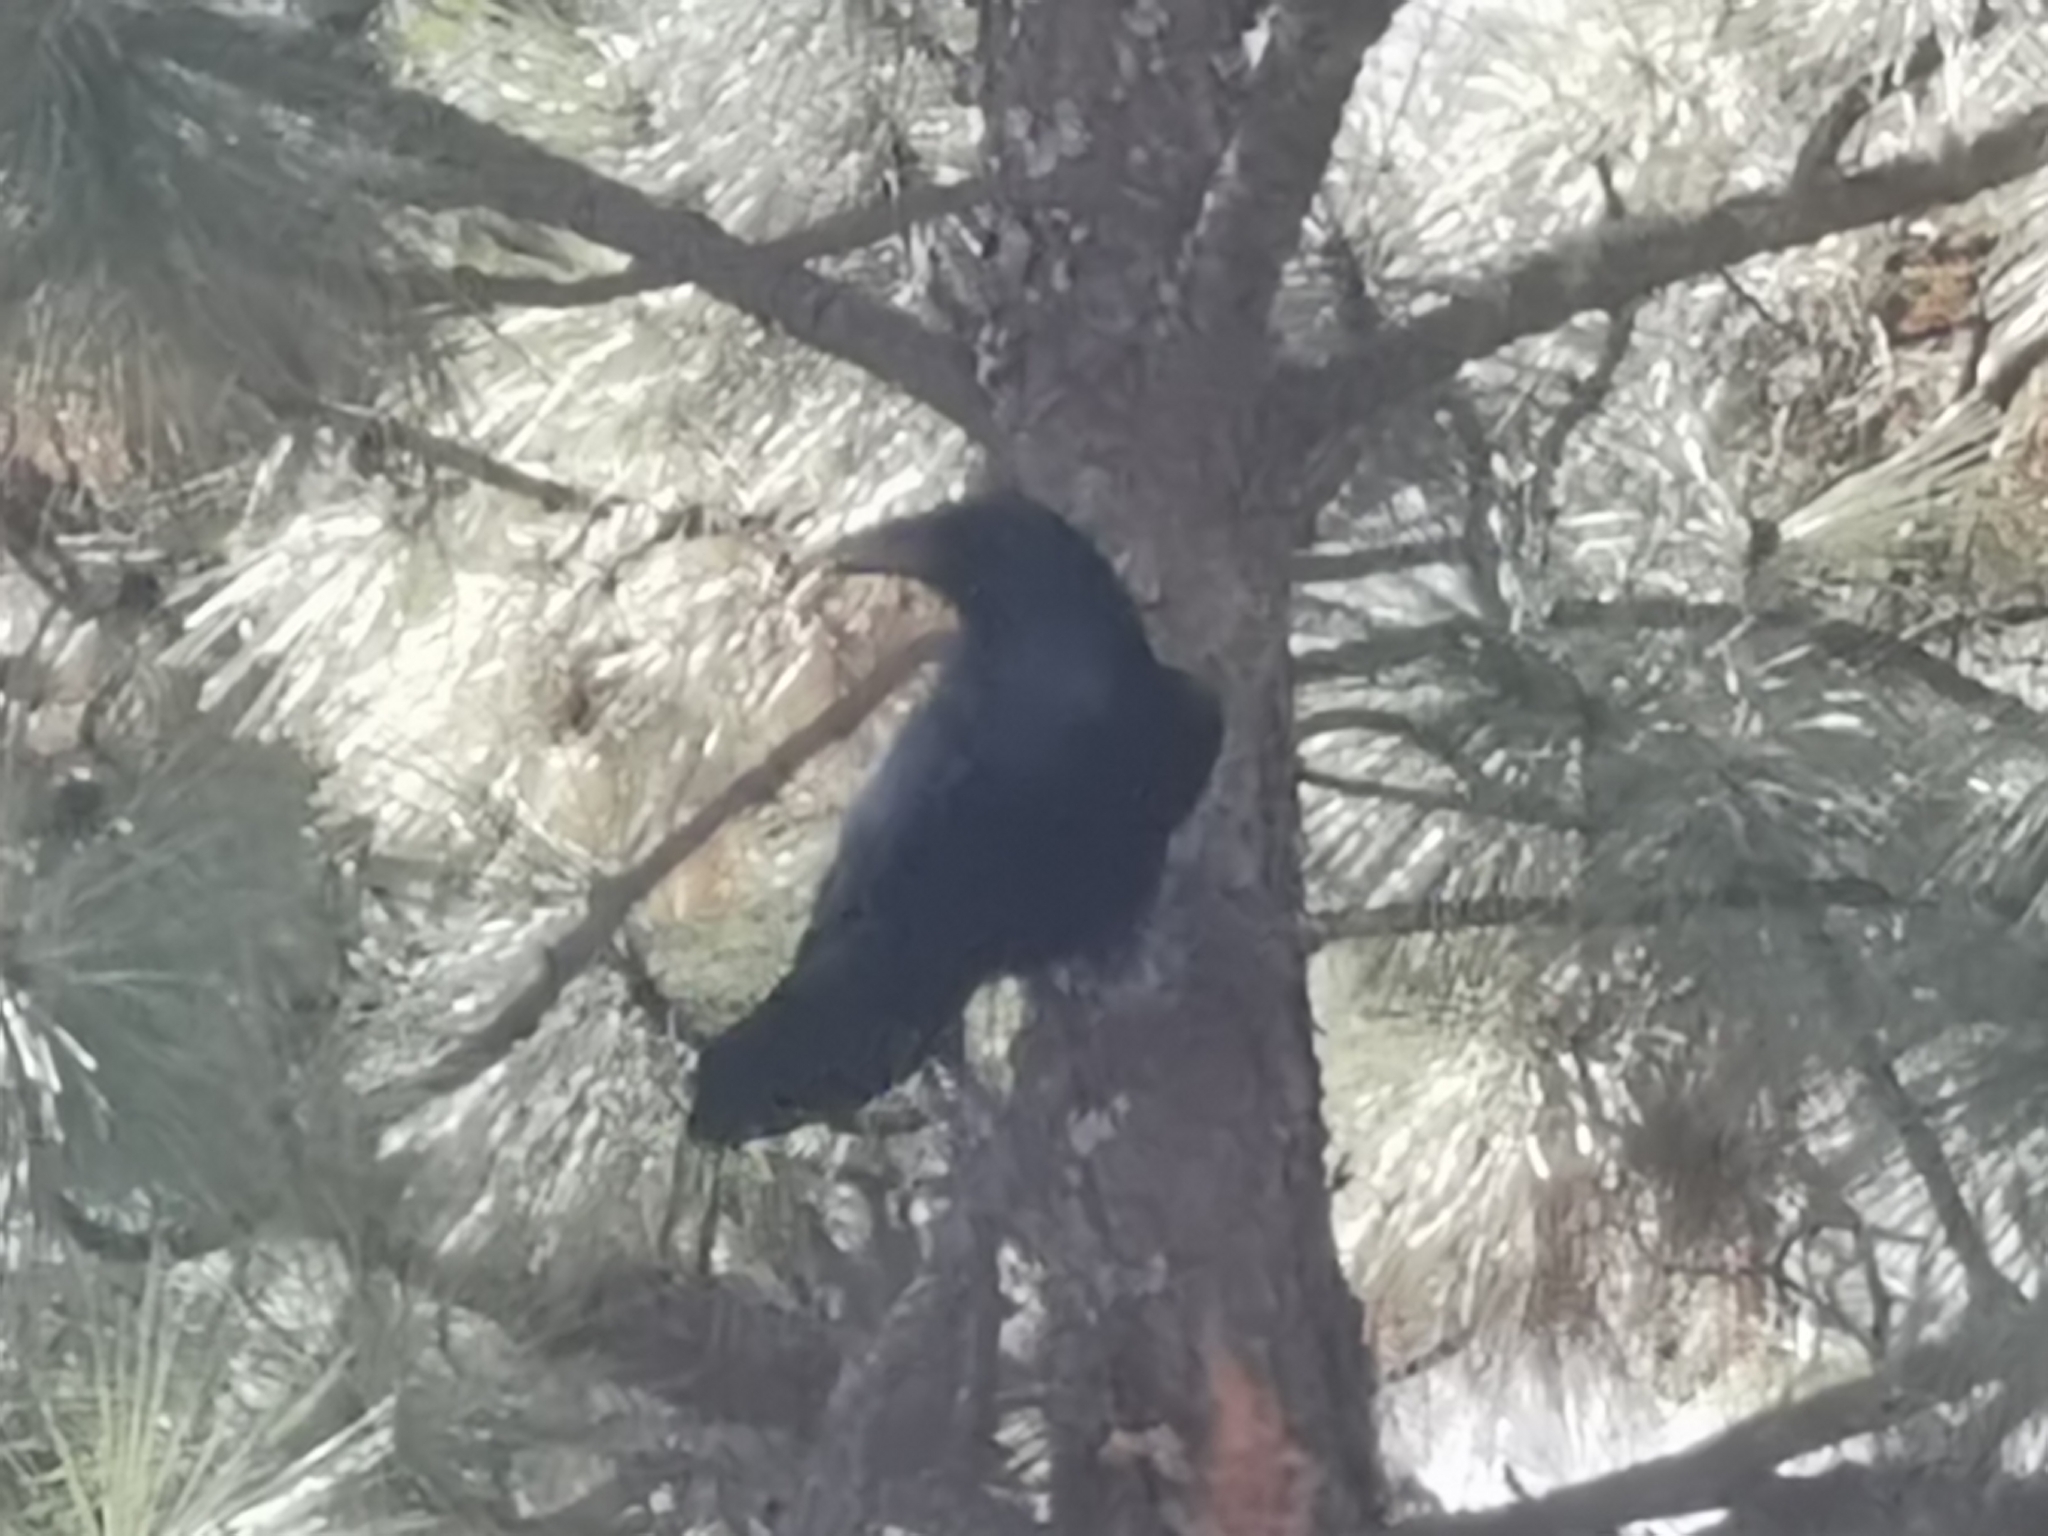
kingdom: Animalia
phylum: Chordata
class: Aves
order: Passeriformes
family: Corvidae
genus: Corvus
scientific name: Corvus corax
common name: Common raven
